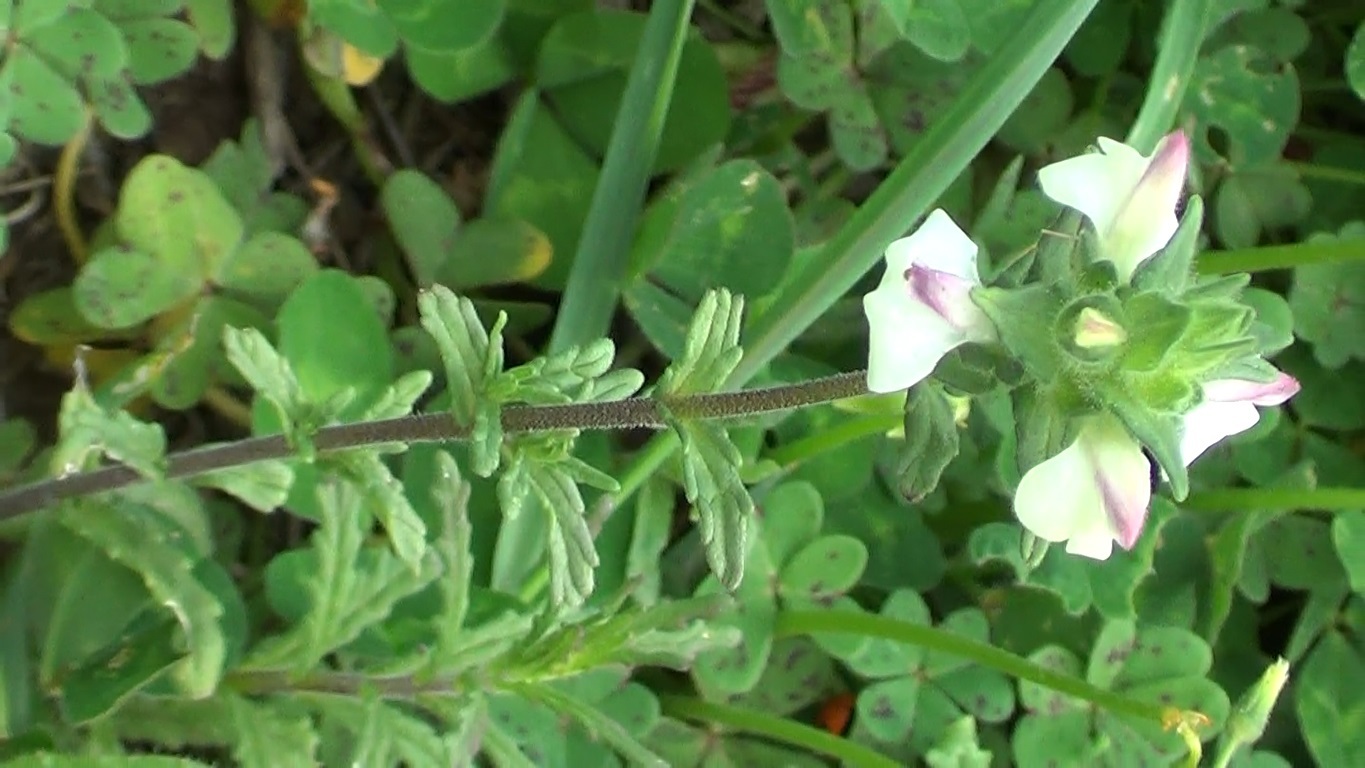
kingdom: Plantae
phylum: Tracheophyta
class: Magnoliopsida
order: Lamiales
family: Orobanchaceae
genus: Bellardia
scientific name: Bellardia trixago
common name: Mediterranean lineseed
